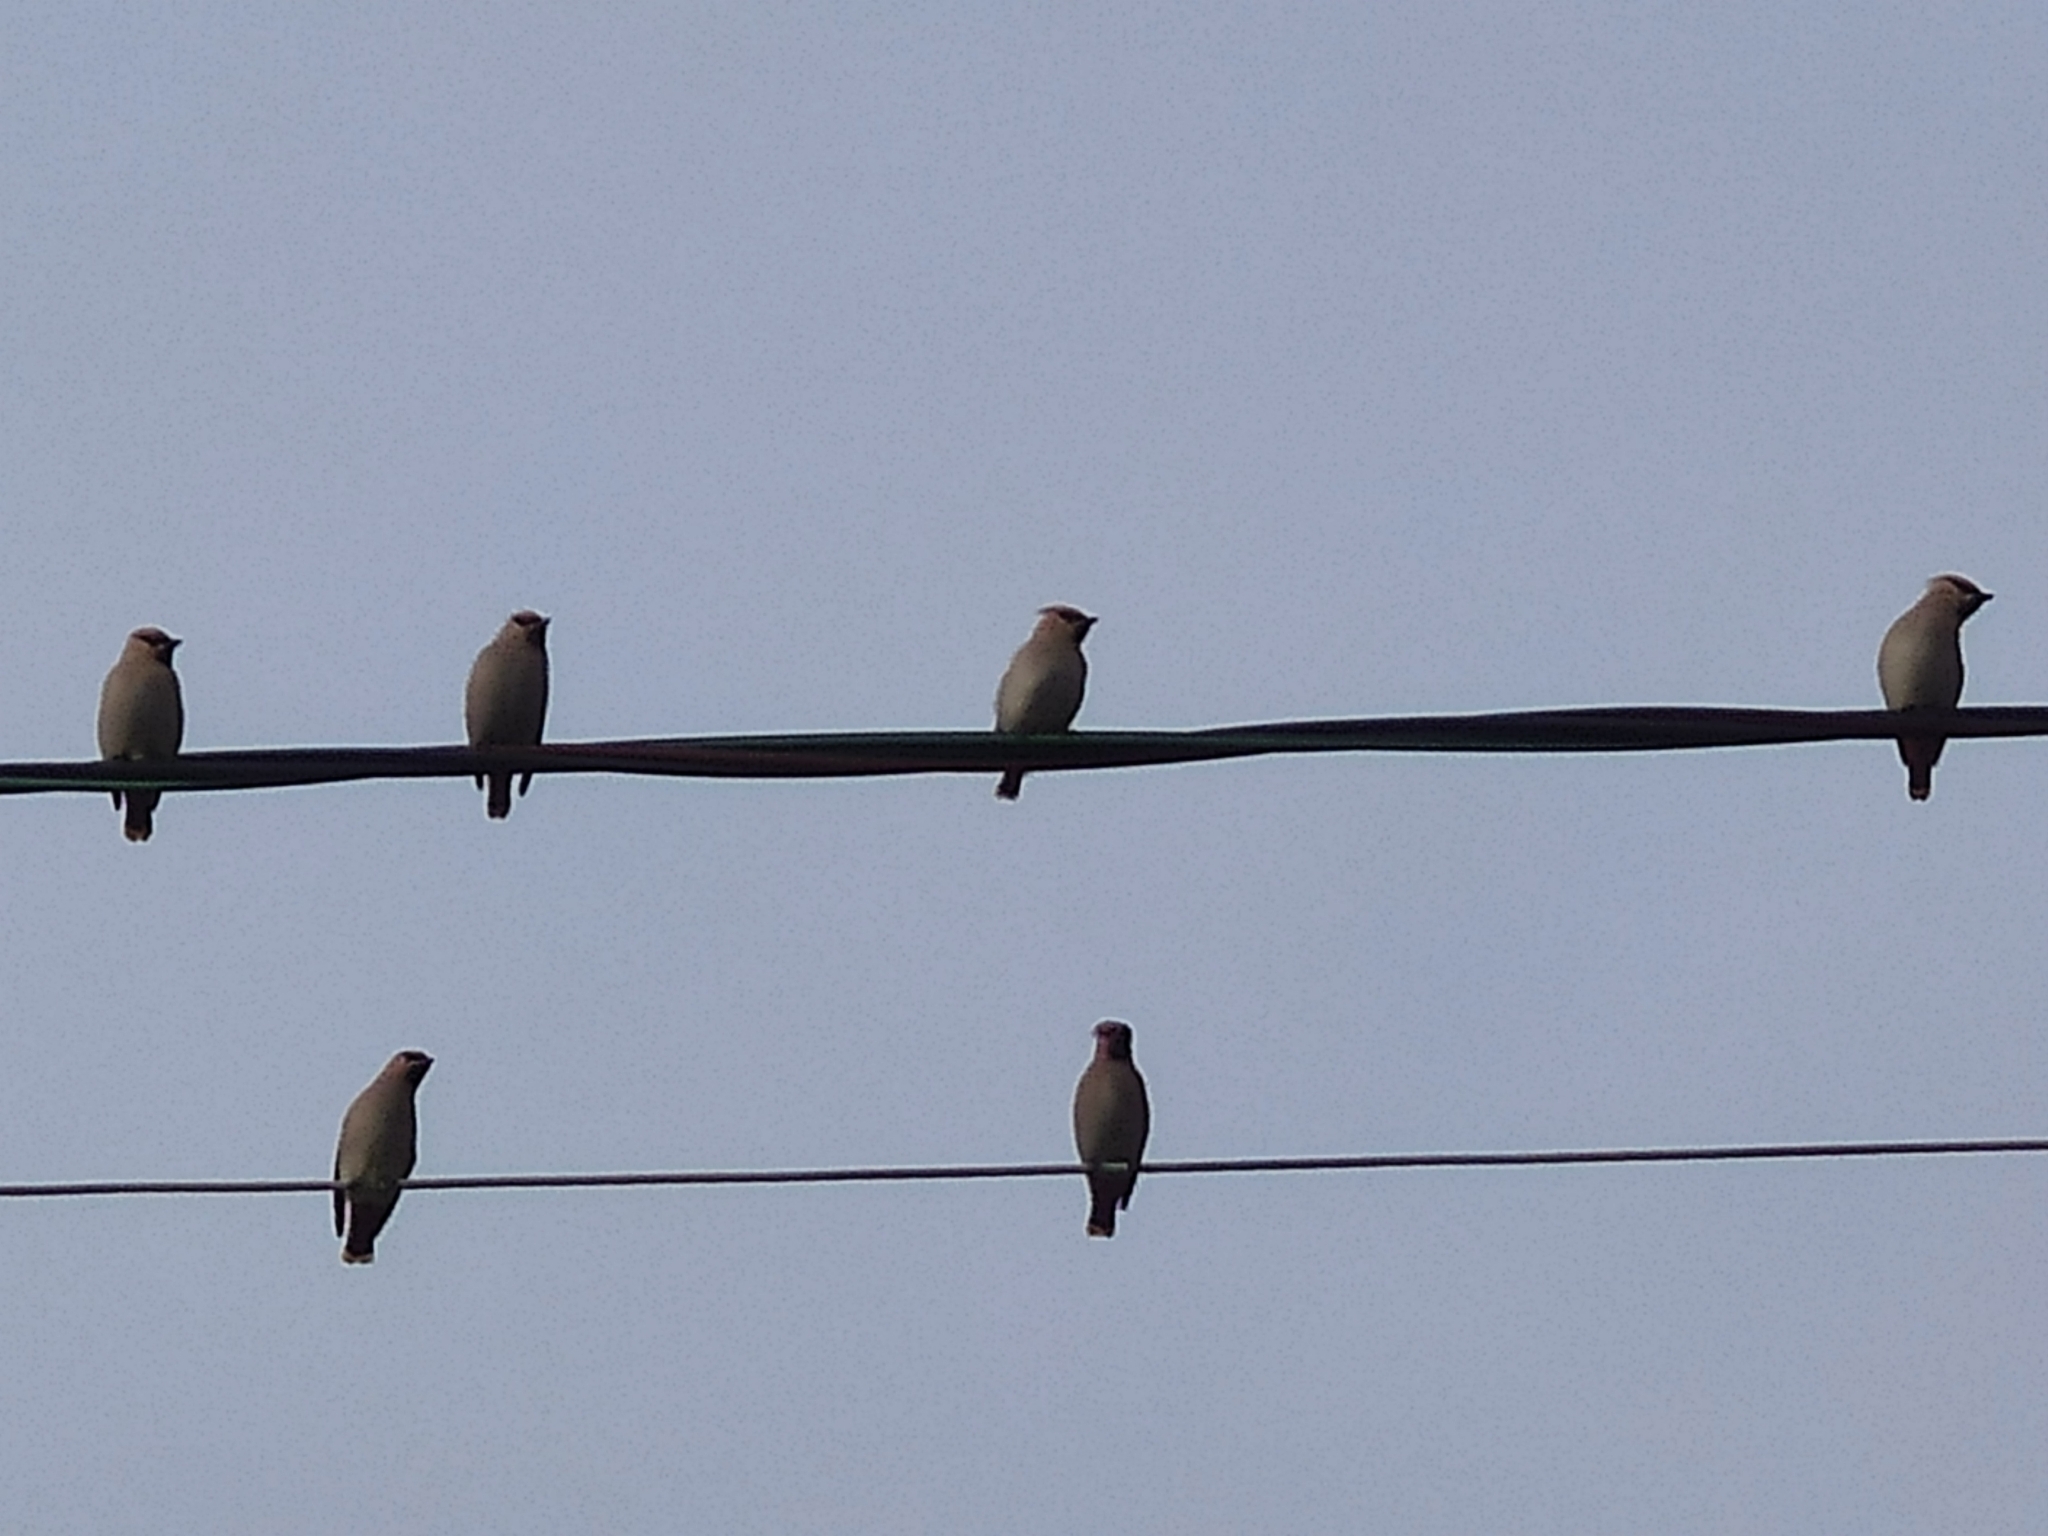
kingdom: Animalia
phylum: Chordata
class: Aves
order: Passeriformes
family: Bombycillidae
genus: Bombycilla
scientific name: Bombycilla garrulus
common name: Bohemian waxwing
